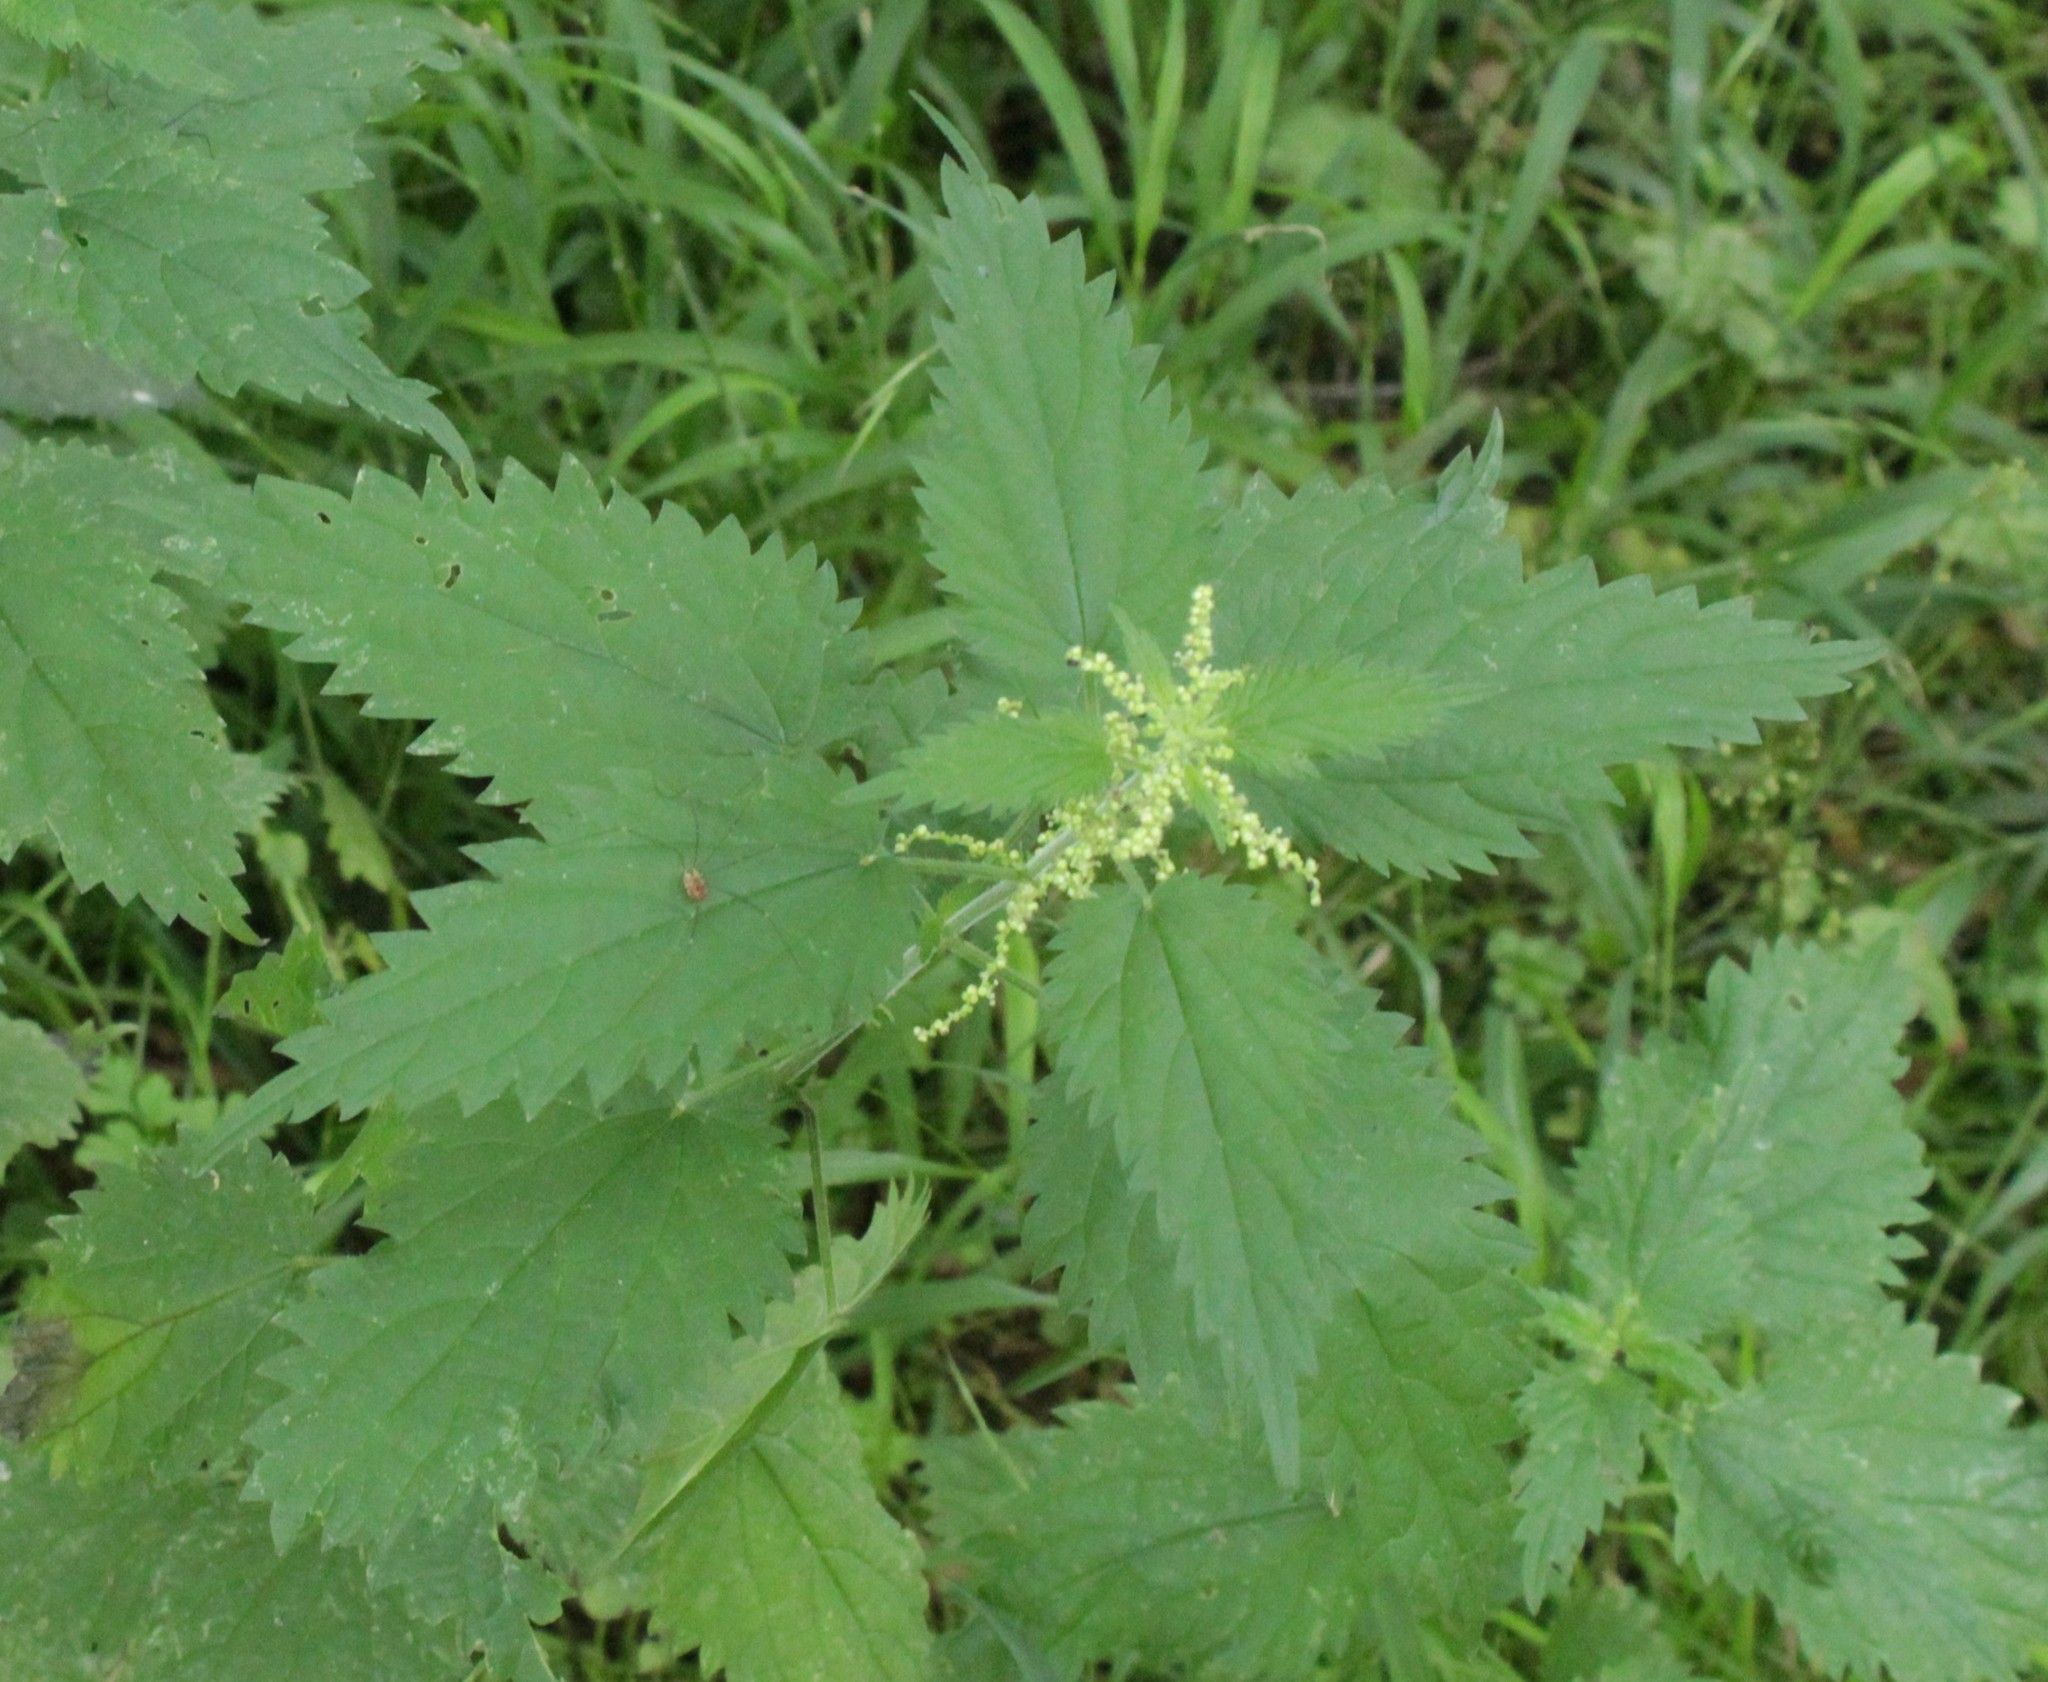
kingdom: Plantae
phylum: Tracheophyta
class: Magnoliopsida
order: Rosales
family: Urticaceae
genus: Urtica
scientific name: Urtica dioica
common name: Common nettle
